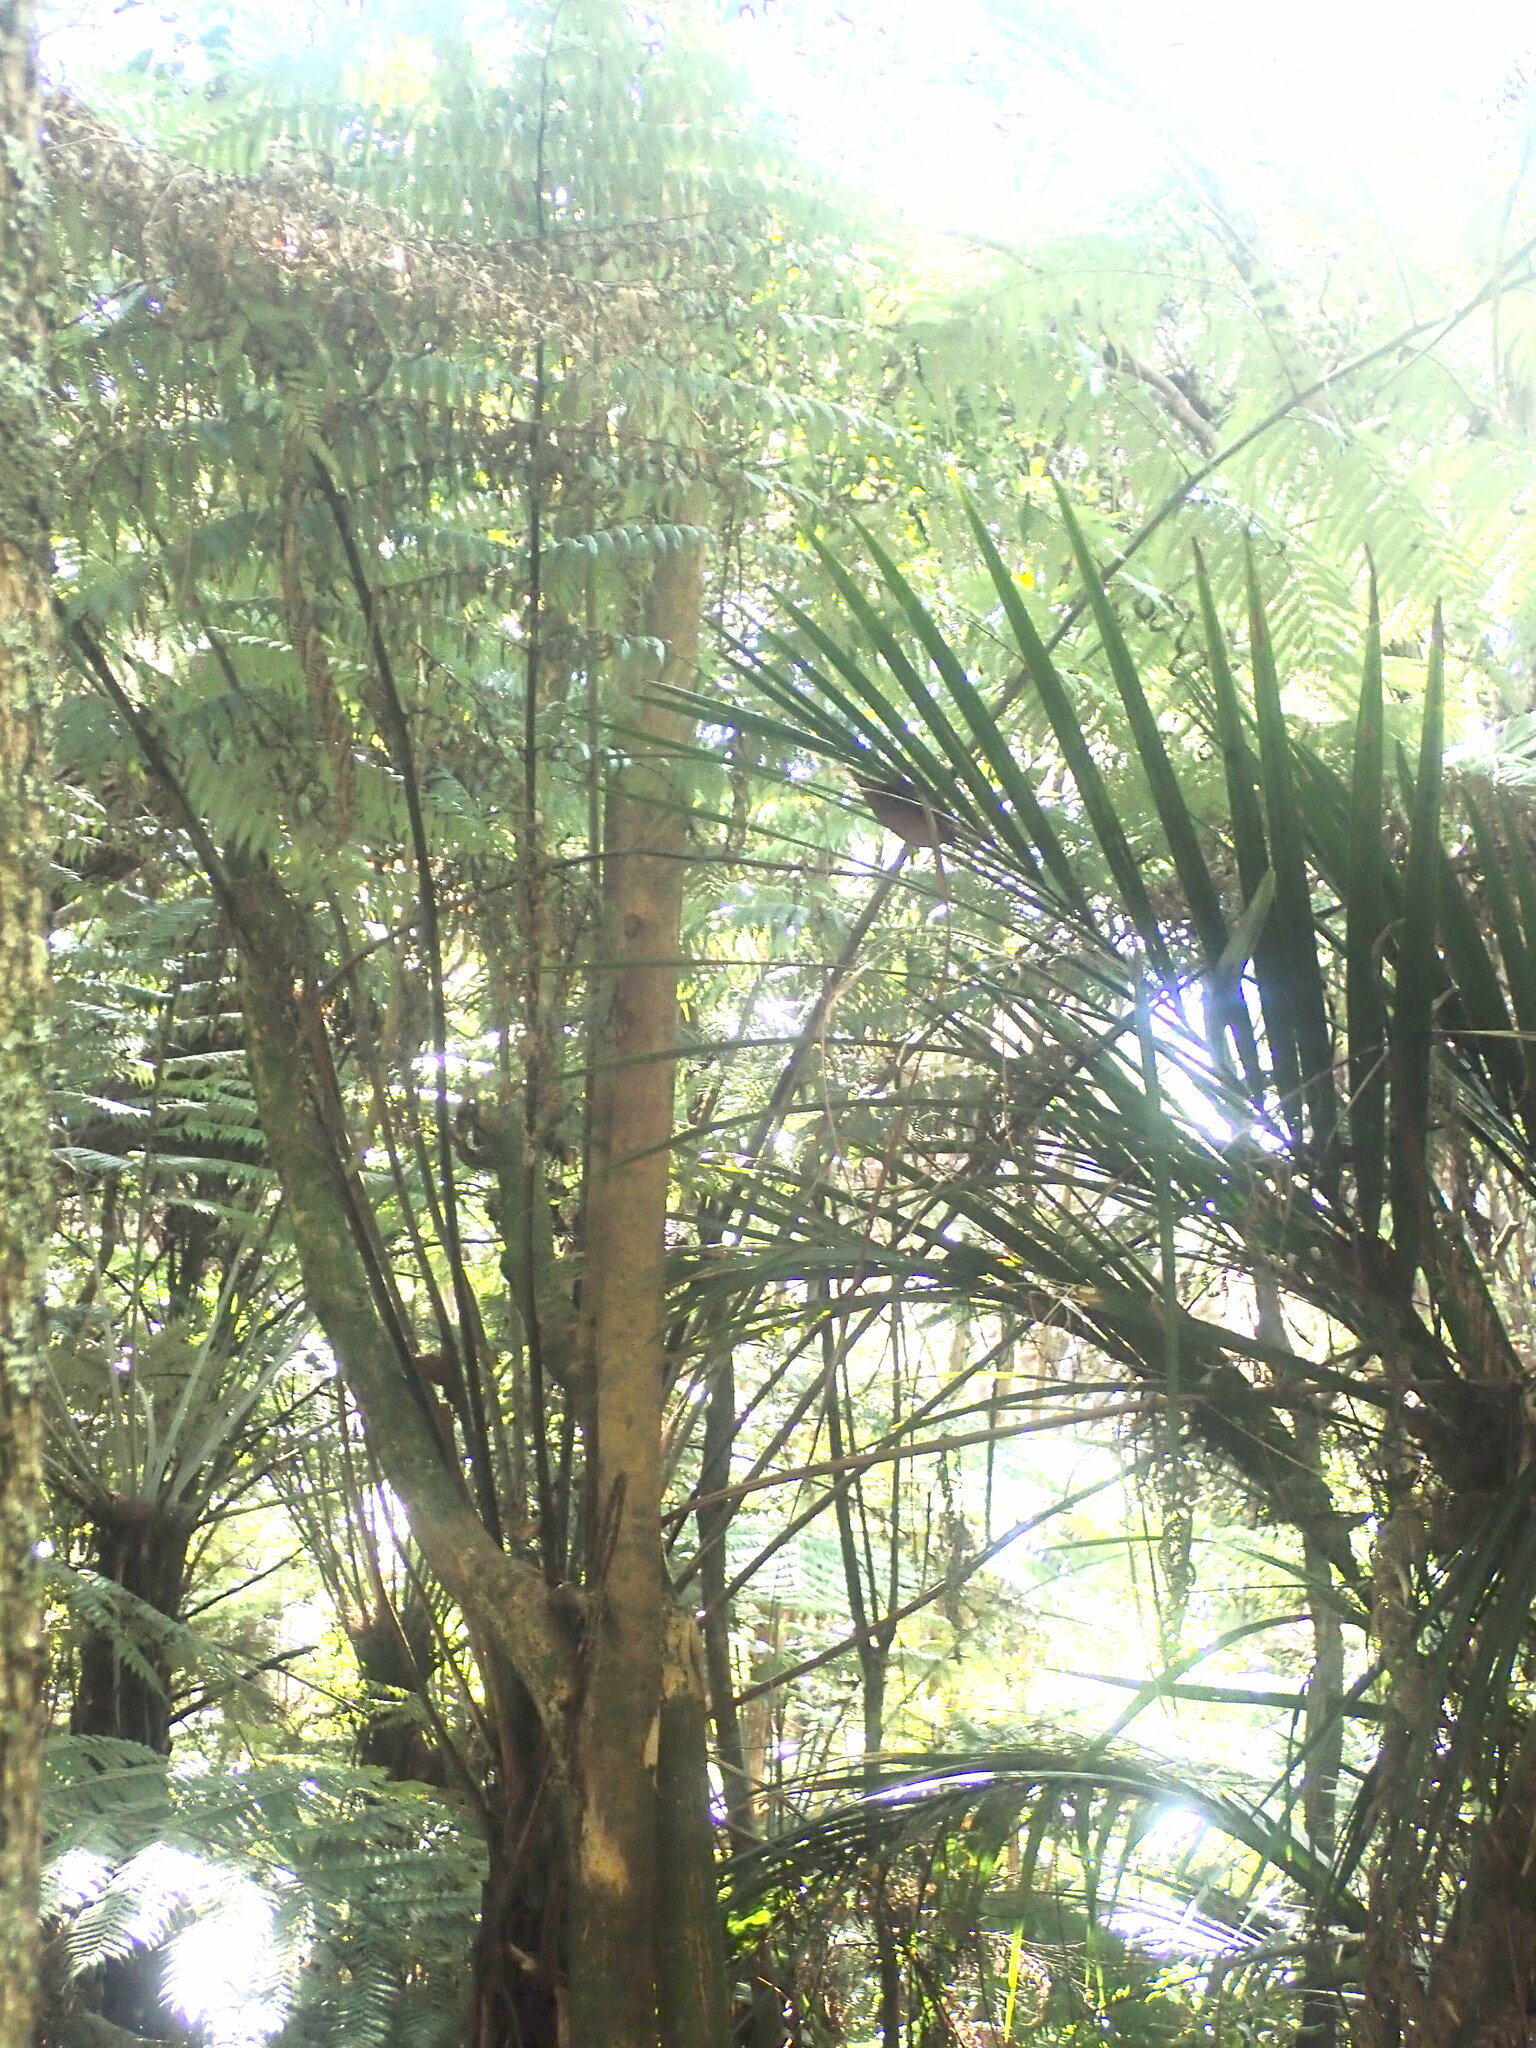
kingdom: Plantae
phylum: Tracheophyta
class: Magnoliopsida
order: Lamiales
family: Oleaceae
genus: Ligustrum
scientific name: Ligustrum lucidum
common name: Glossy privet
